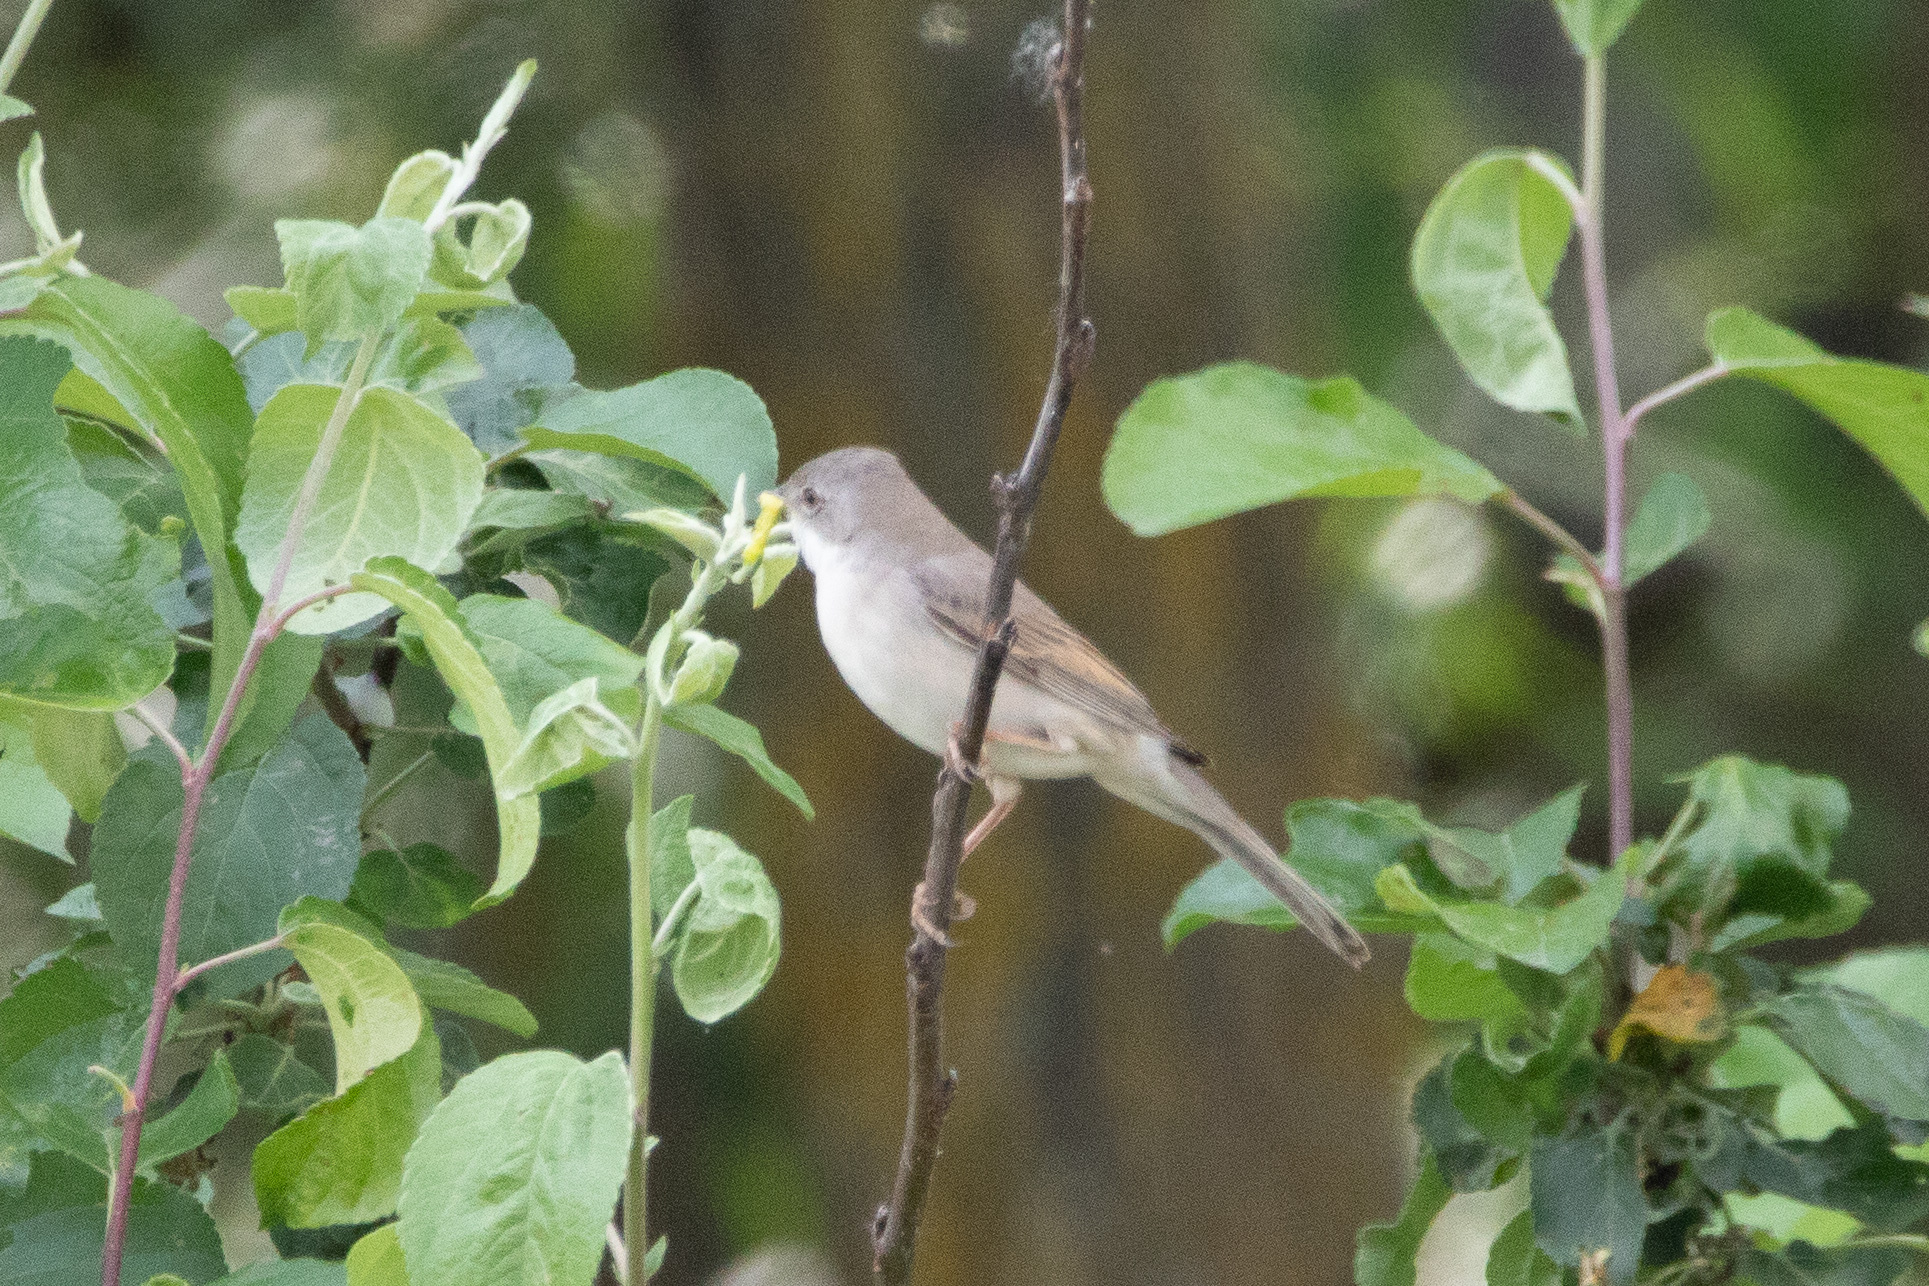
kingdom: Animalia
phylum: Chordata
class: Aves
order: Passeriformes
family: Sylviidae
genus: Sylvia
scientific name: Sylvia communis
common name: Common whitethroat
